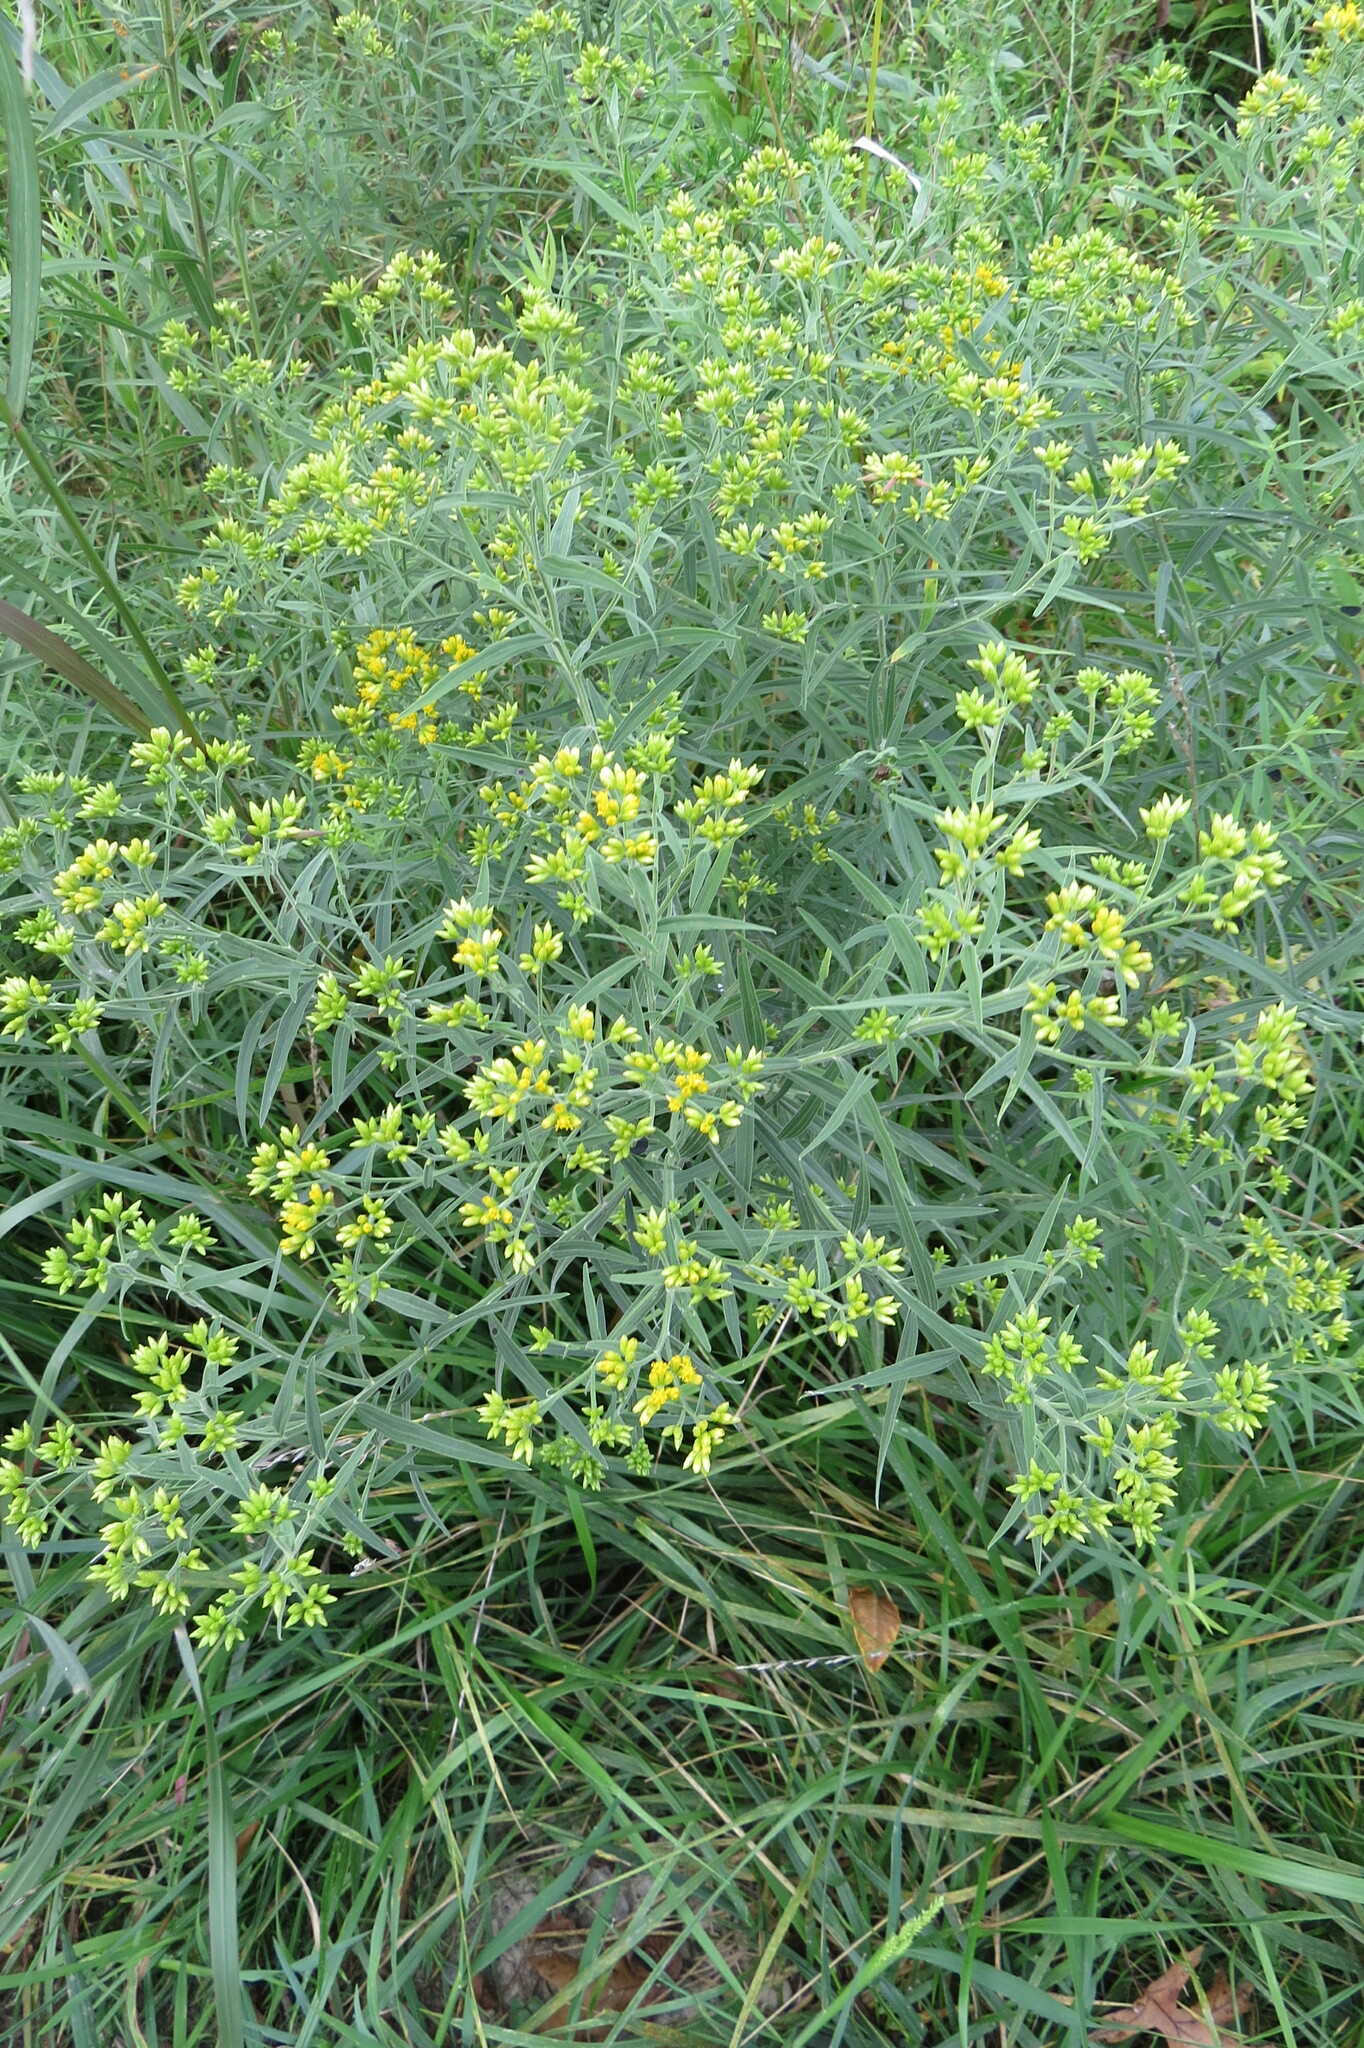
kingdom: Plantae
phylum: Tracheophyta
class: Magnoliopsida
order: Asterales
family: Asteraceae
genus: Euthamia
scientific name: Euthamia graminifolia
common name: Common goldentop
